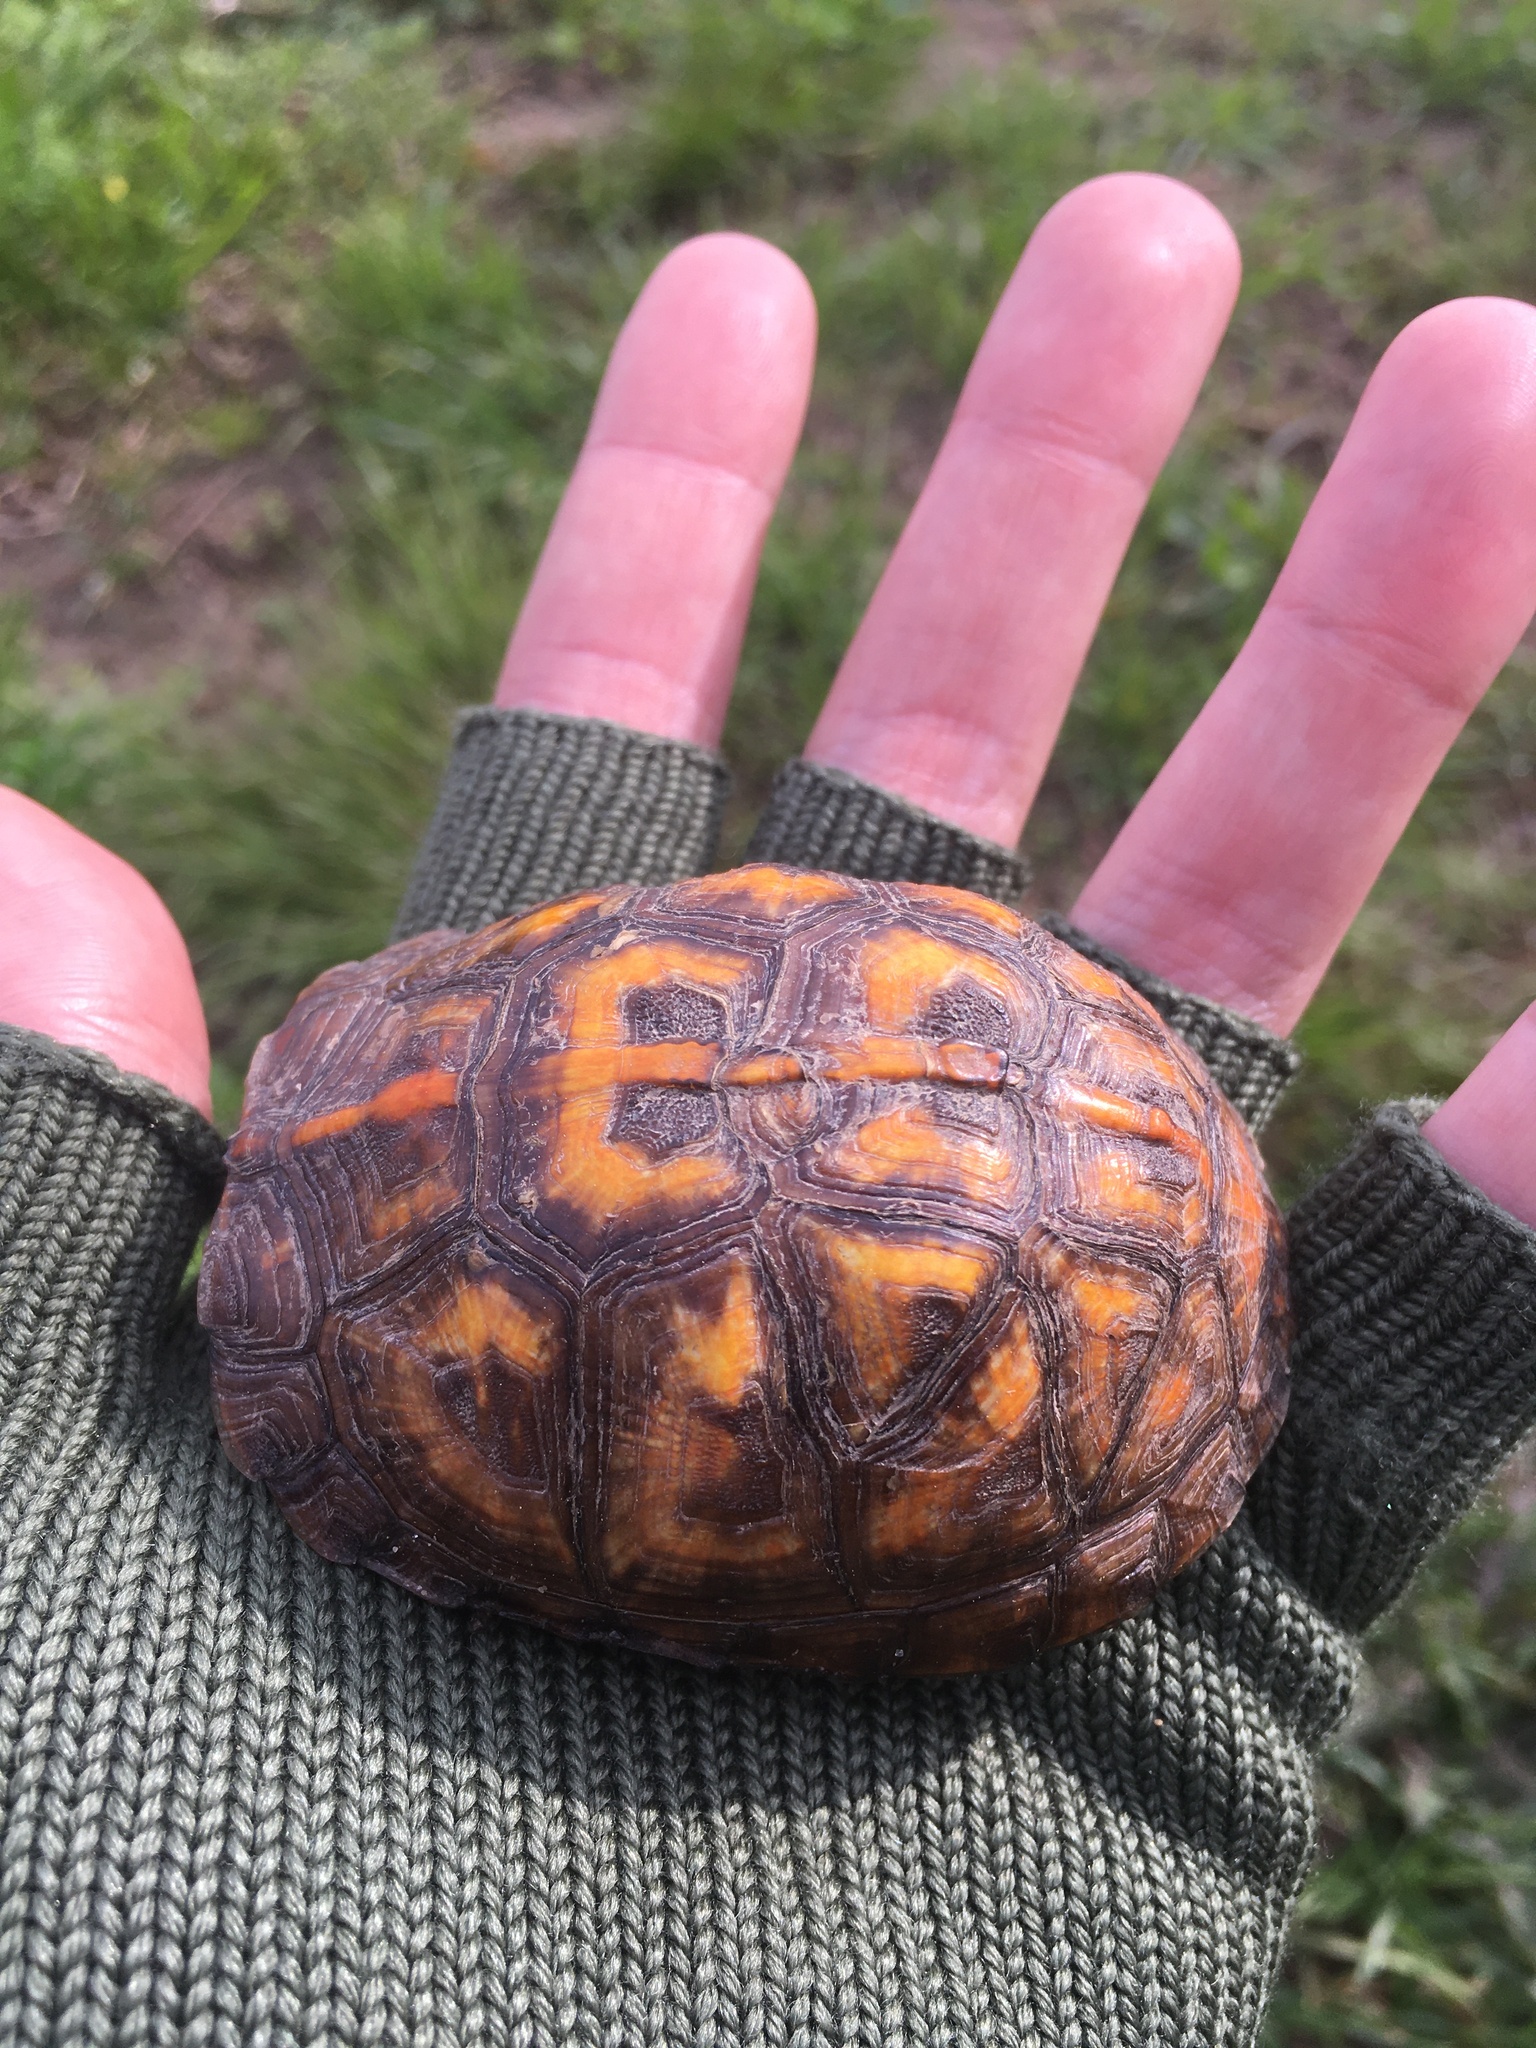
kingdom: Animalia
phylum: Chordata
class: Testudines
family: Emydidae
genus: Terrapene
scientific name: Terrapene carolina
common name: Common box turtle
